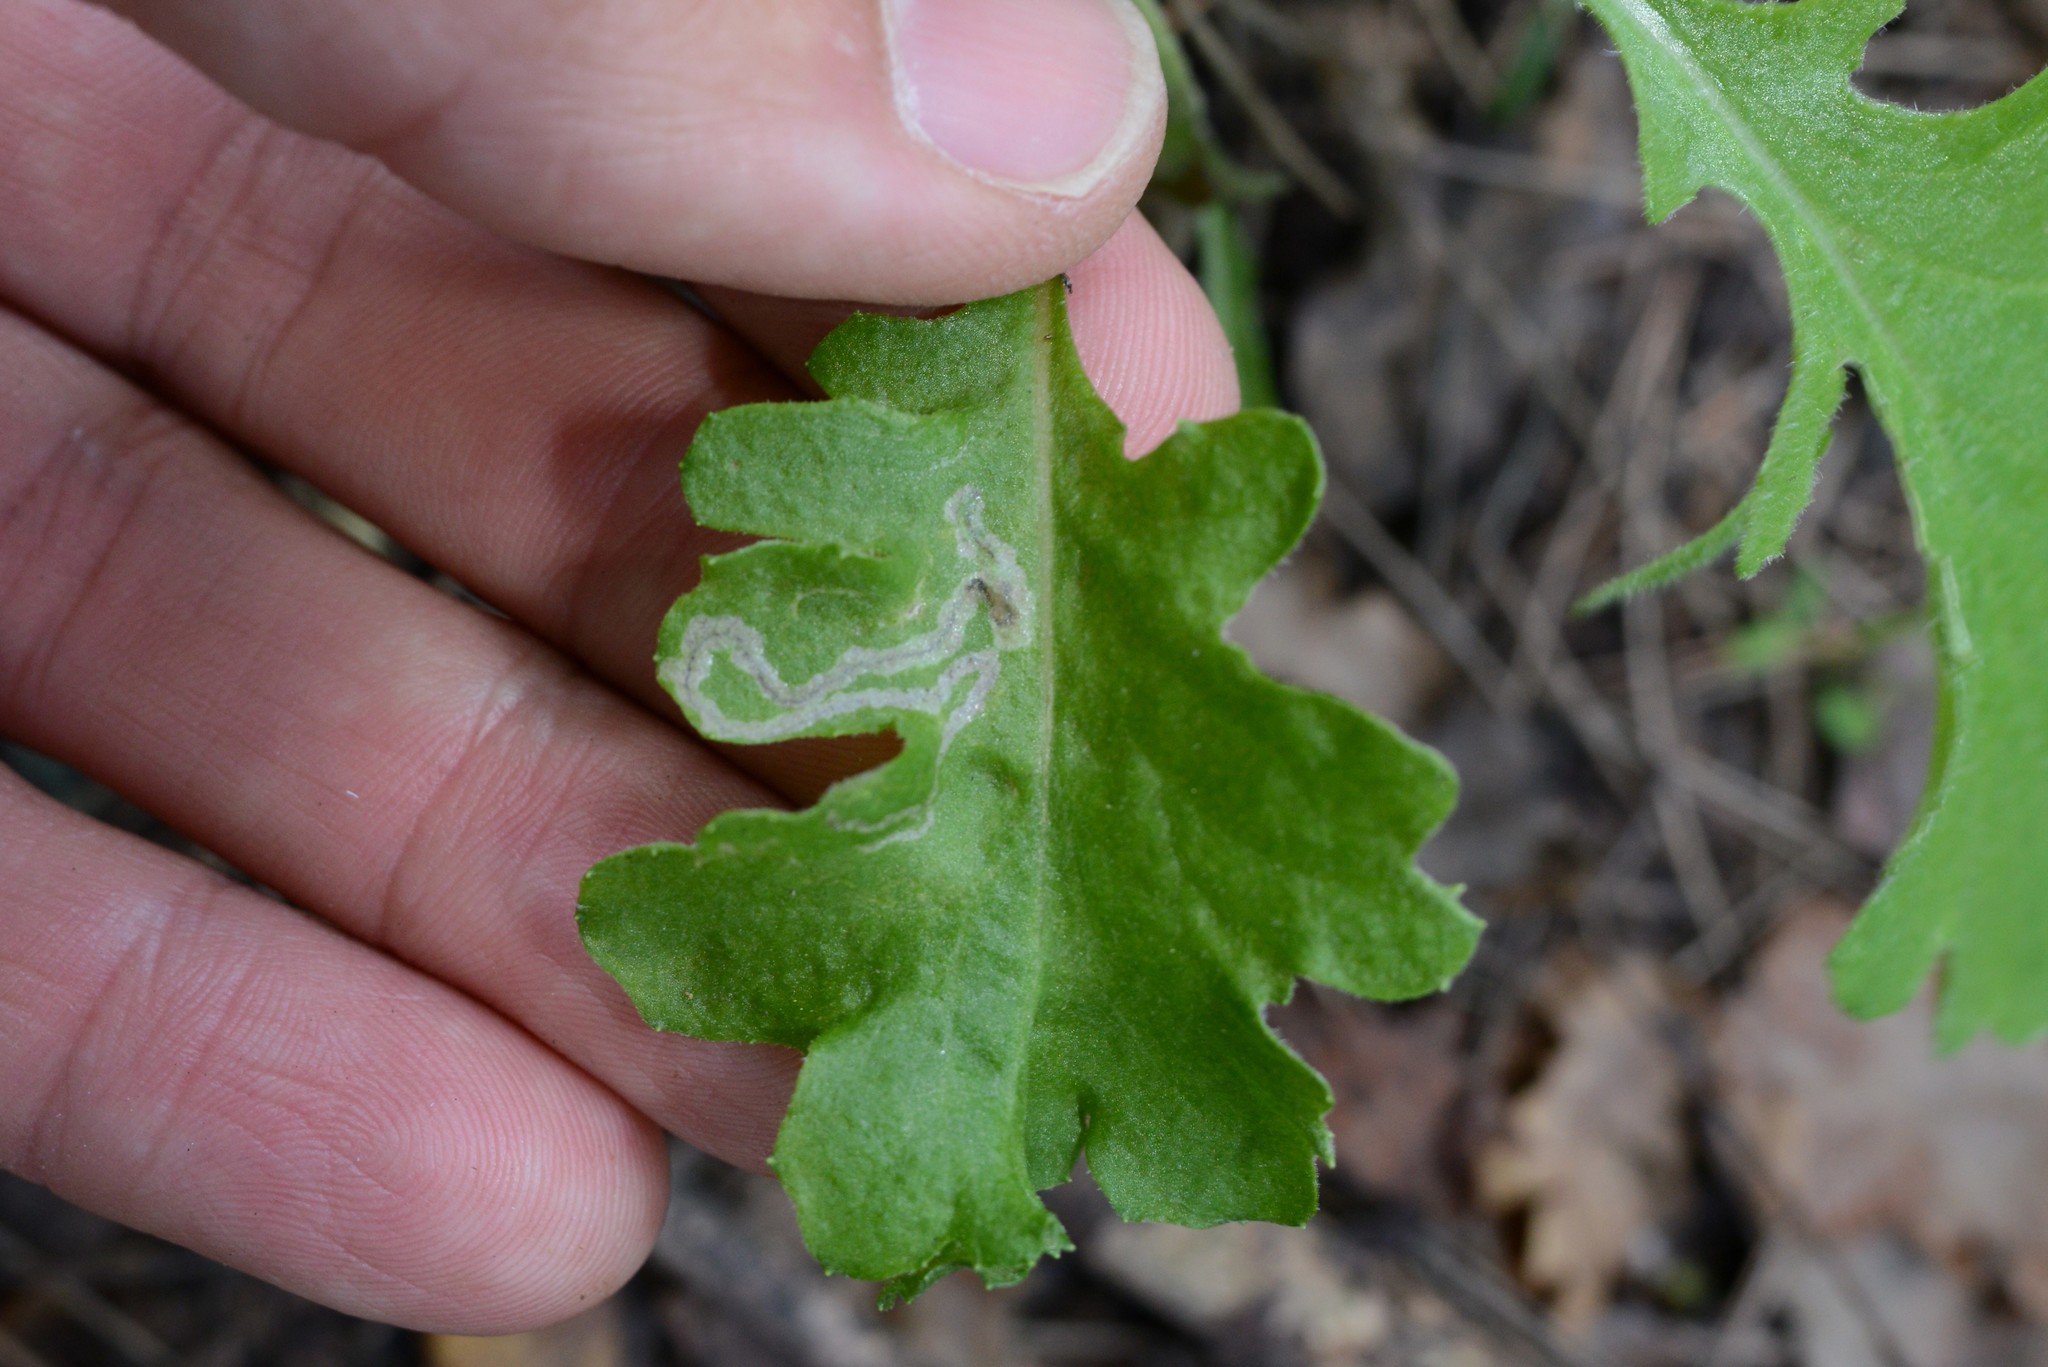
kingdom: Animalia
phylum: Arthropoda
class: Insecta
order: Lepidoptera
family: Nepticulidae
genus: Stigmella
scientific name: Stigmella ogygia
